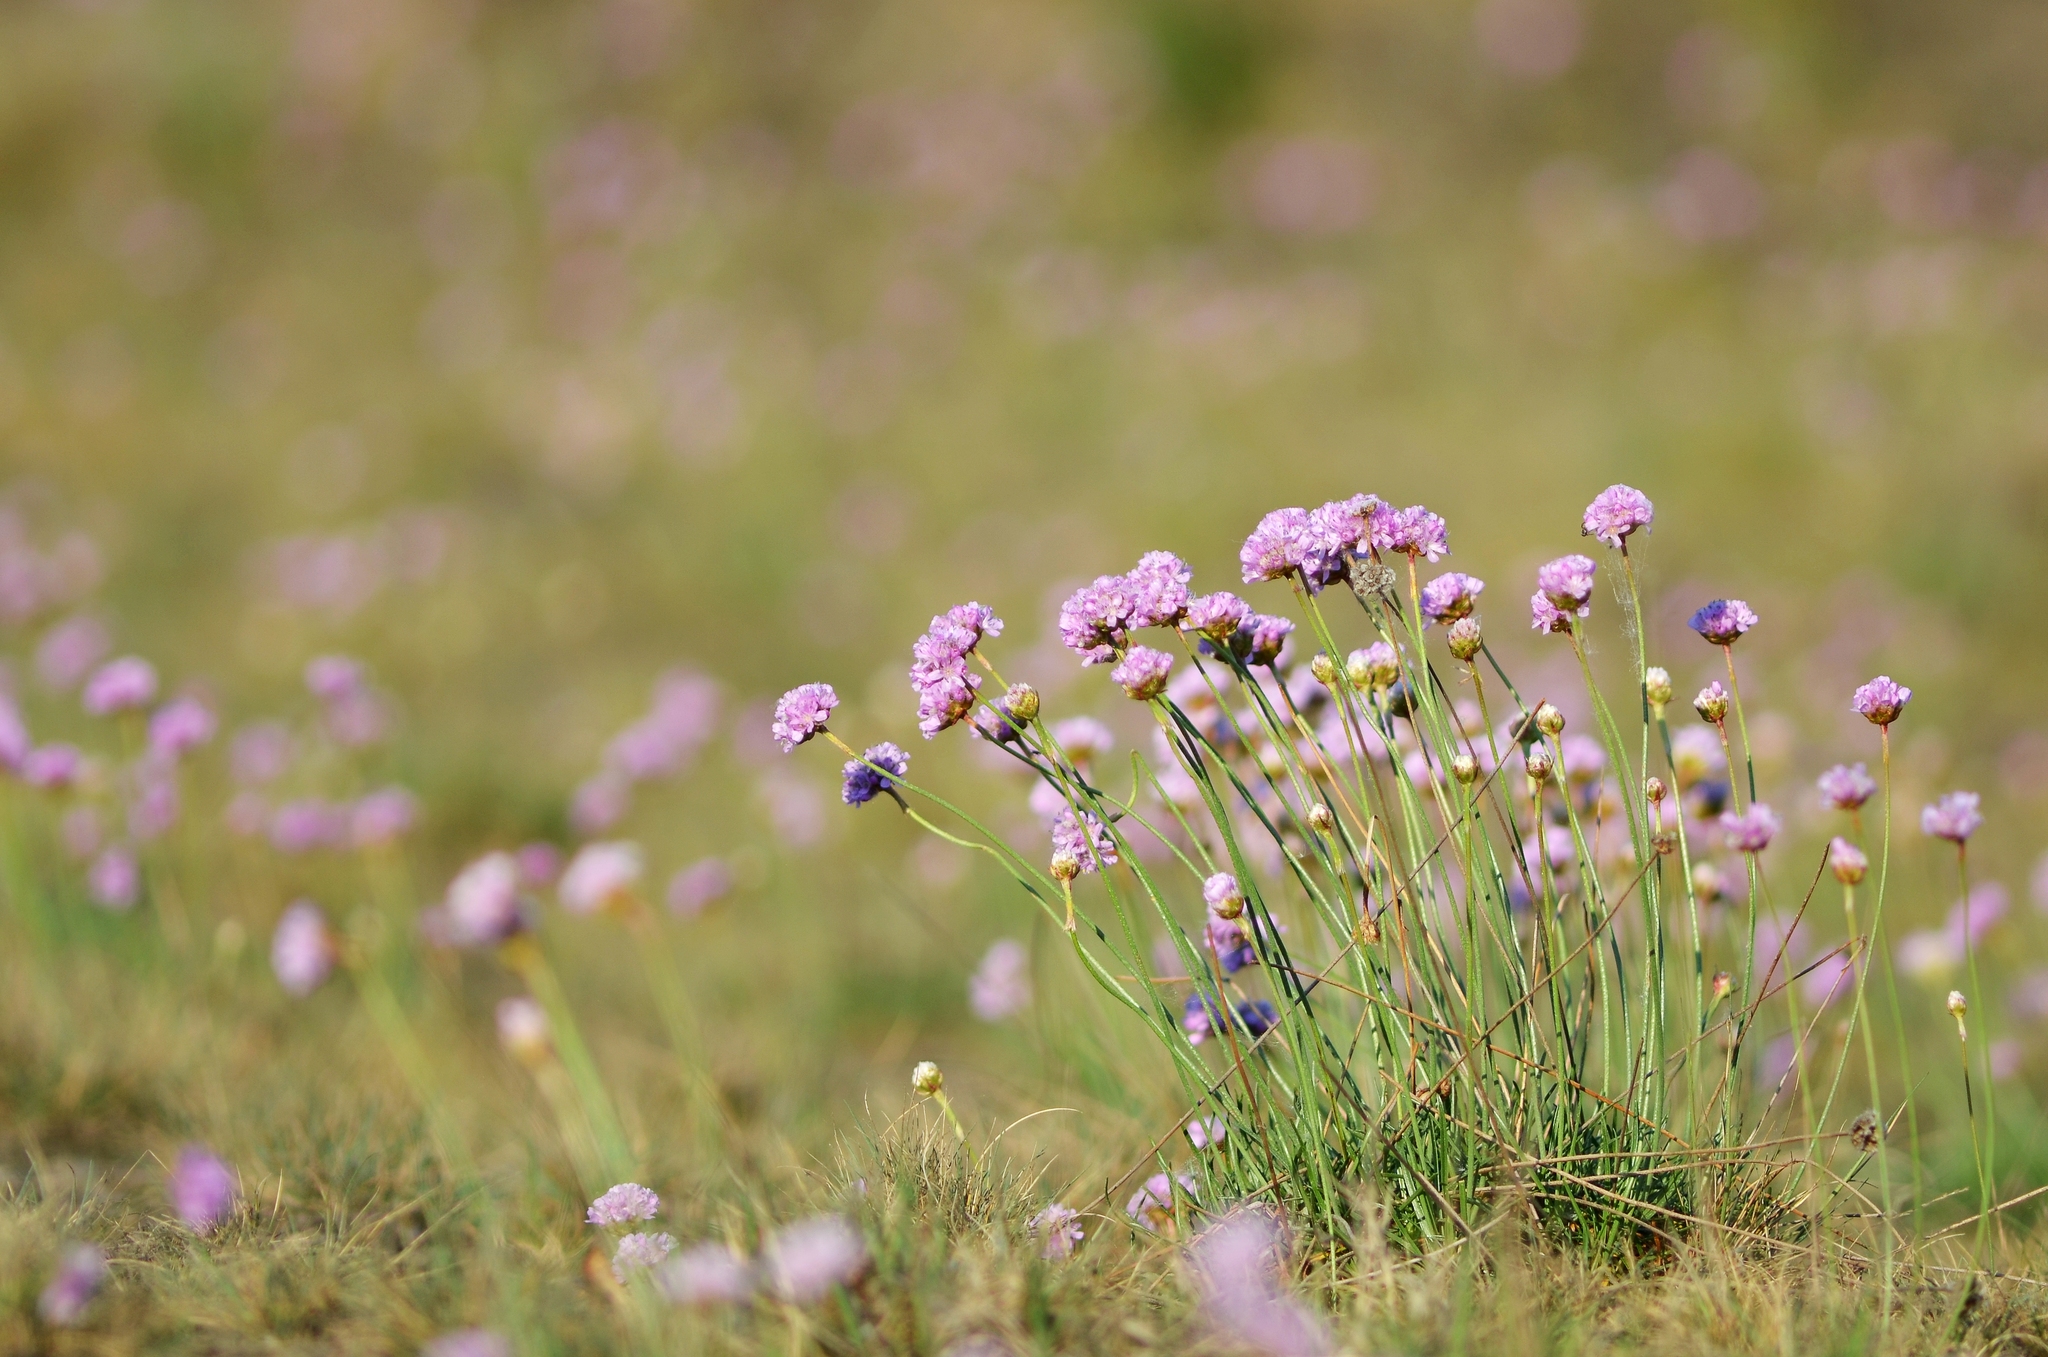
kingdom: Plantae
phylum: Tracheophyta
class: Magnoliopsida
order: Caryophyllales
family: Plumbaginaceae
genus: Armeria
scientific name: Armeria maritima
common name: Thrift
